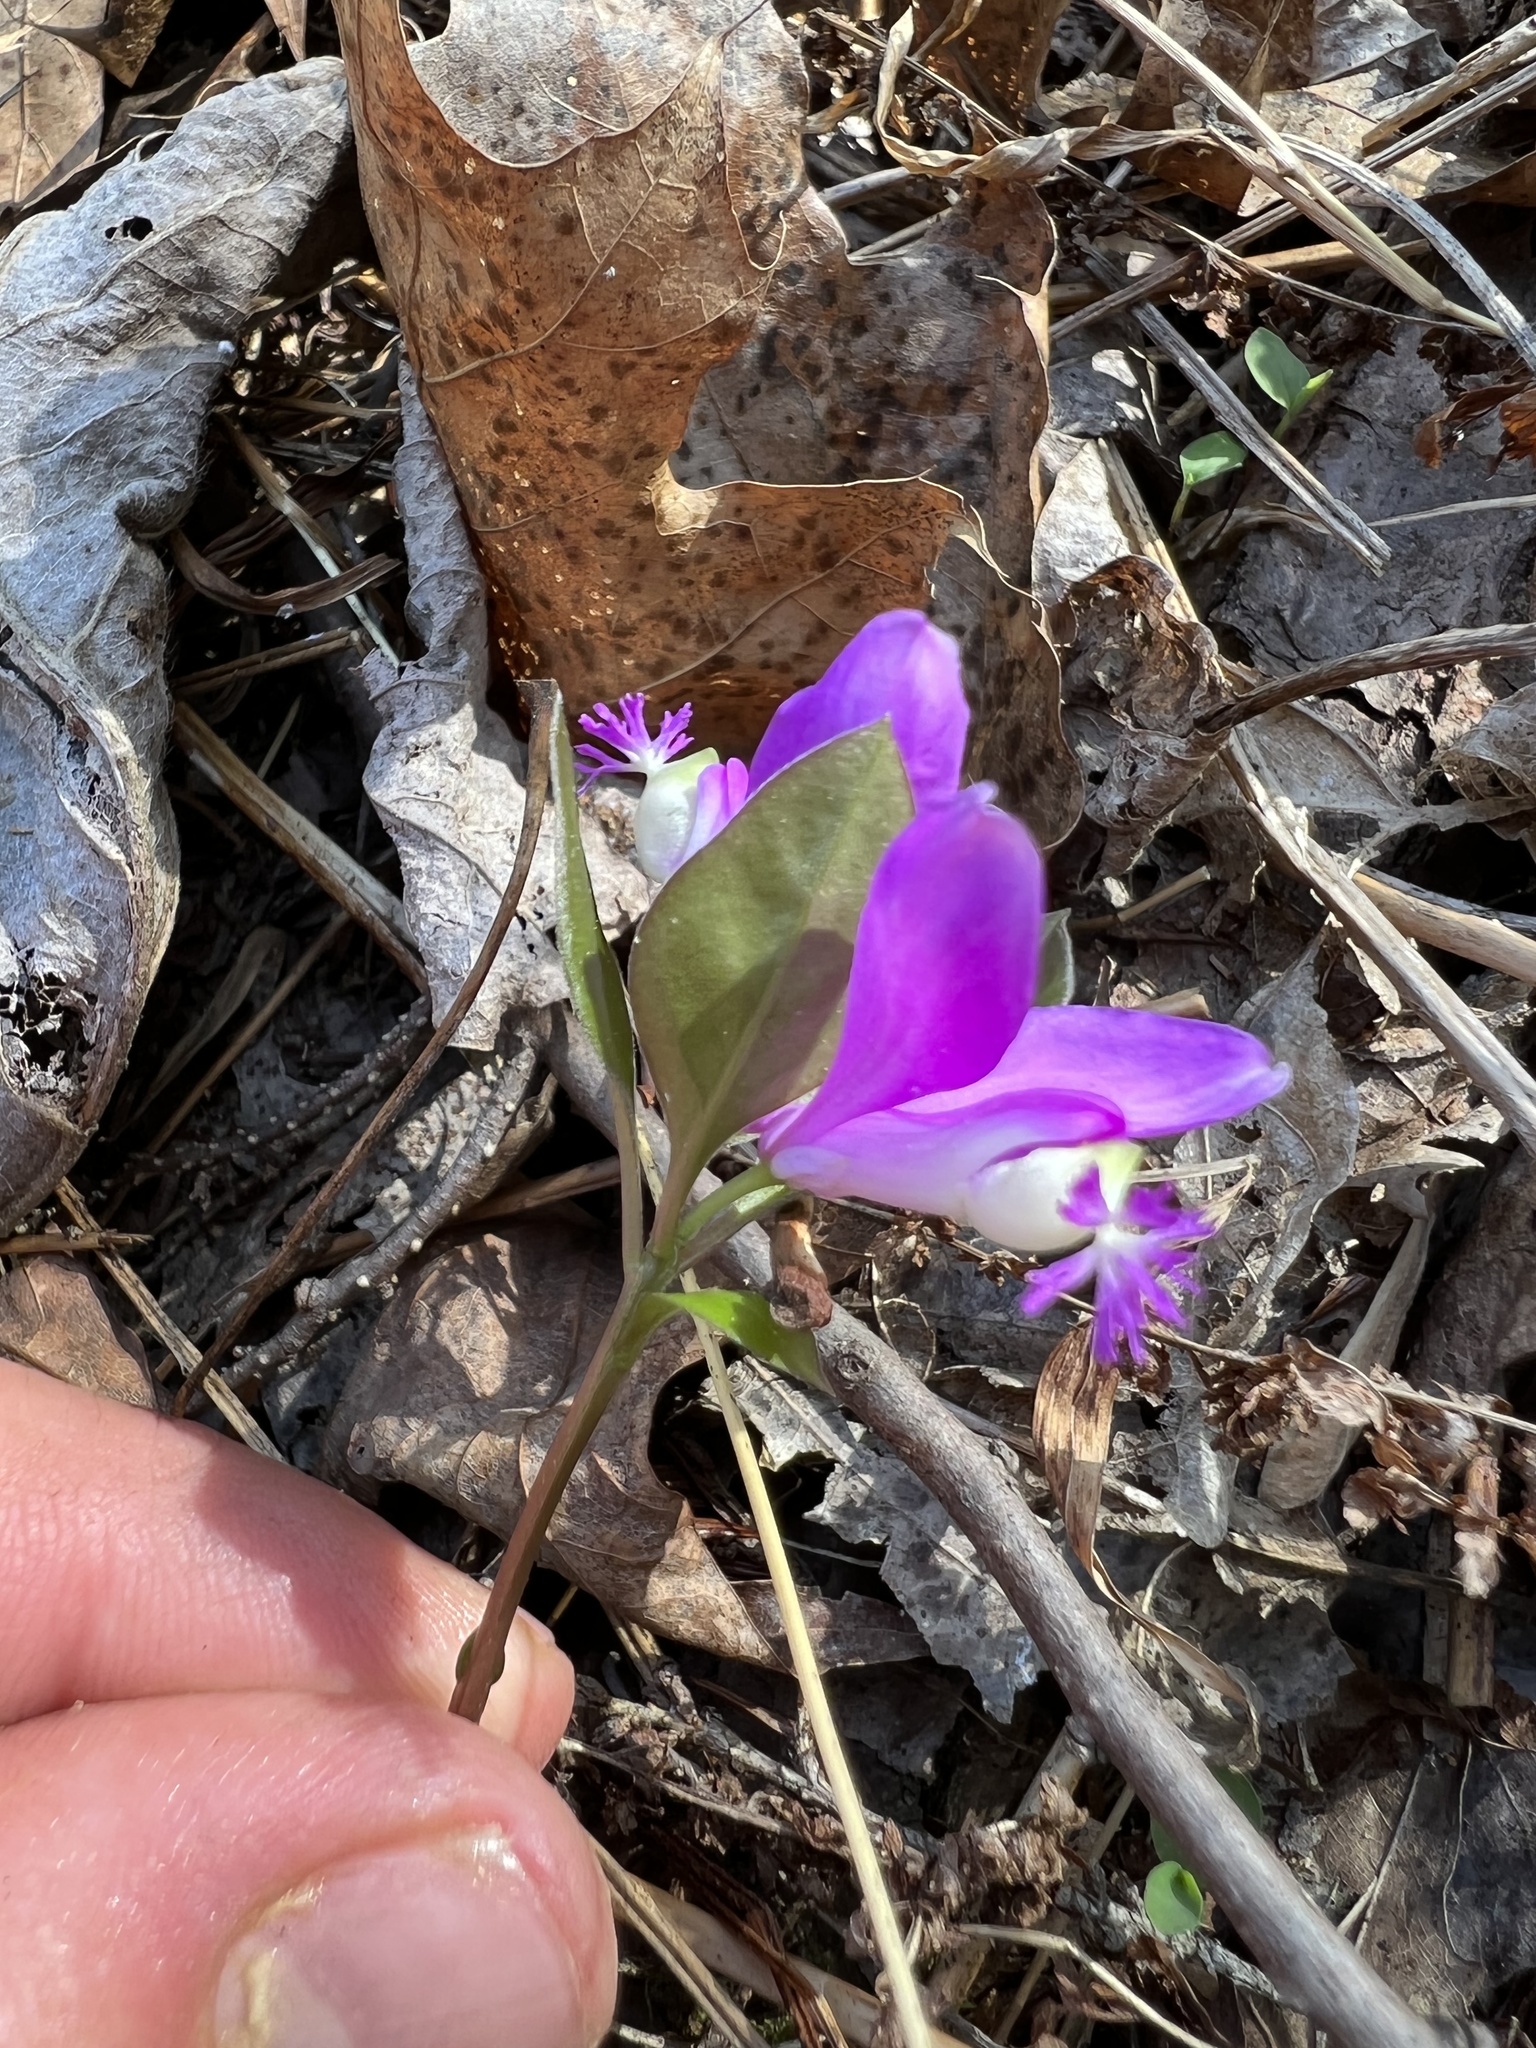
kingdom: Plantae
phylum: Tracheophyta
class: Magnoliopsida
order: Fabales
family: Polygalaceae
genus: Polygaloides
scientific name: Polygaloides paucifolia
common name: Bird-on-the-wing
